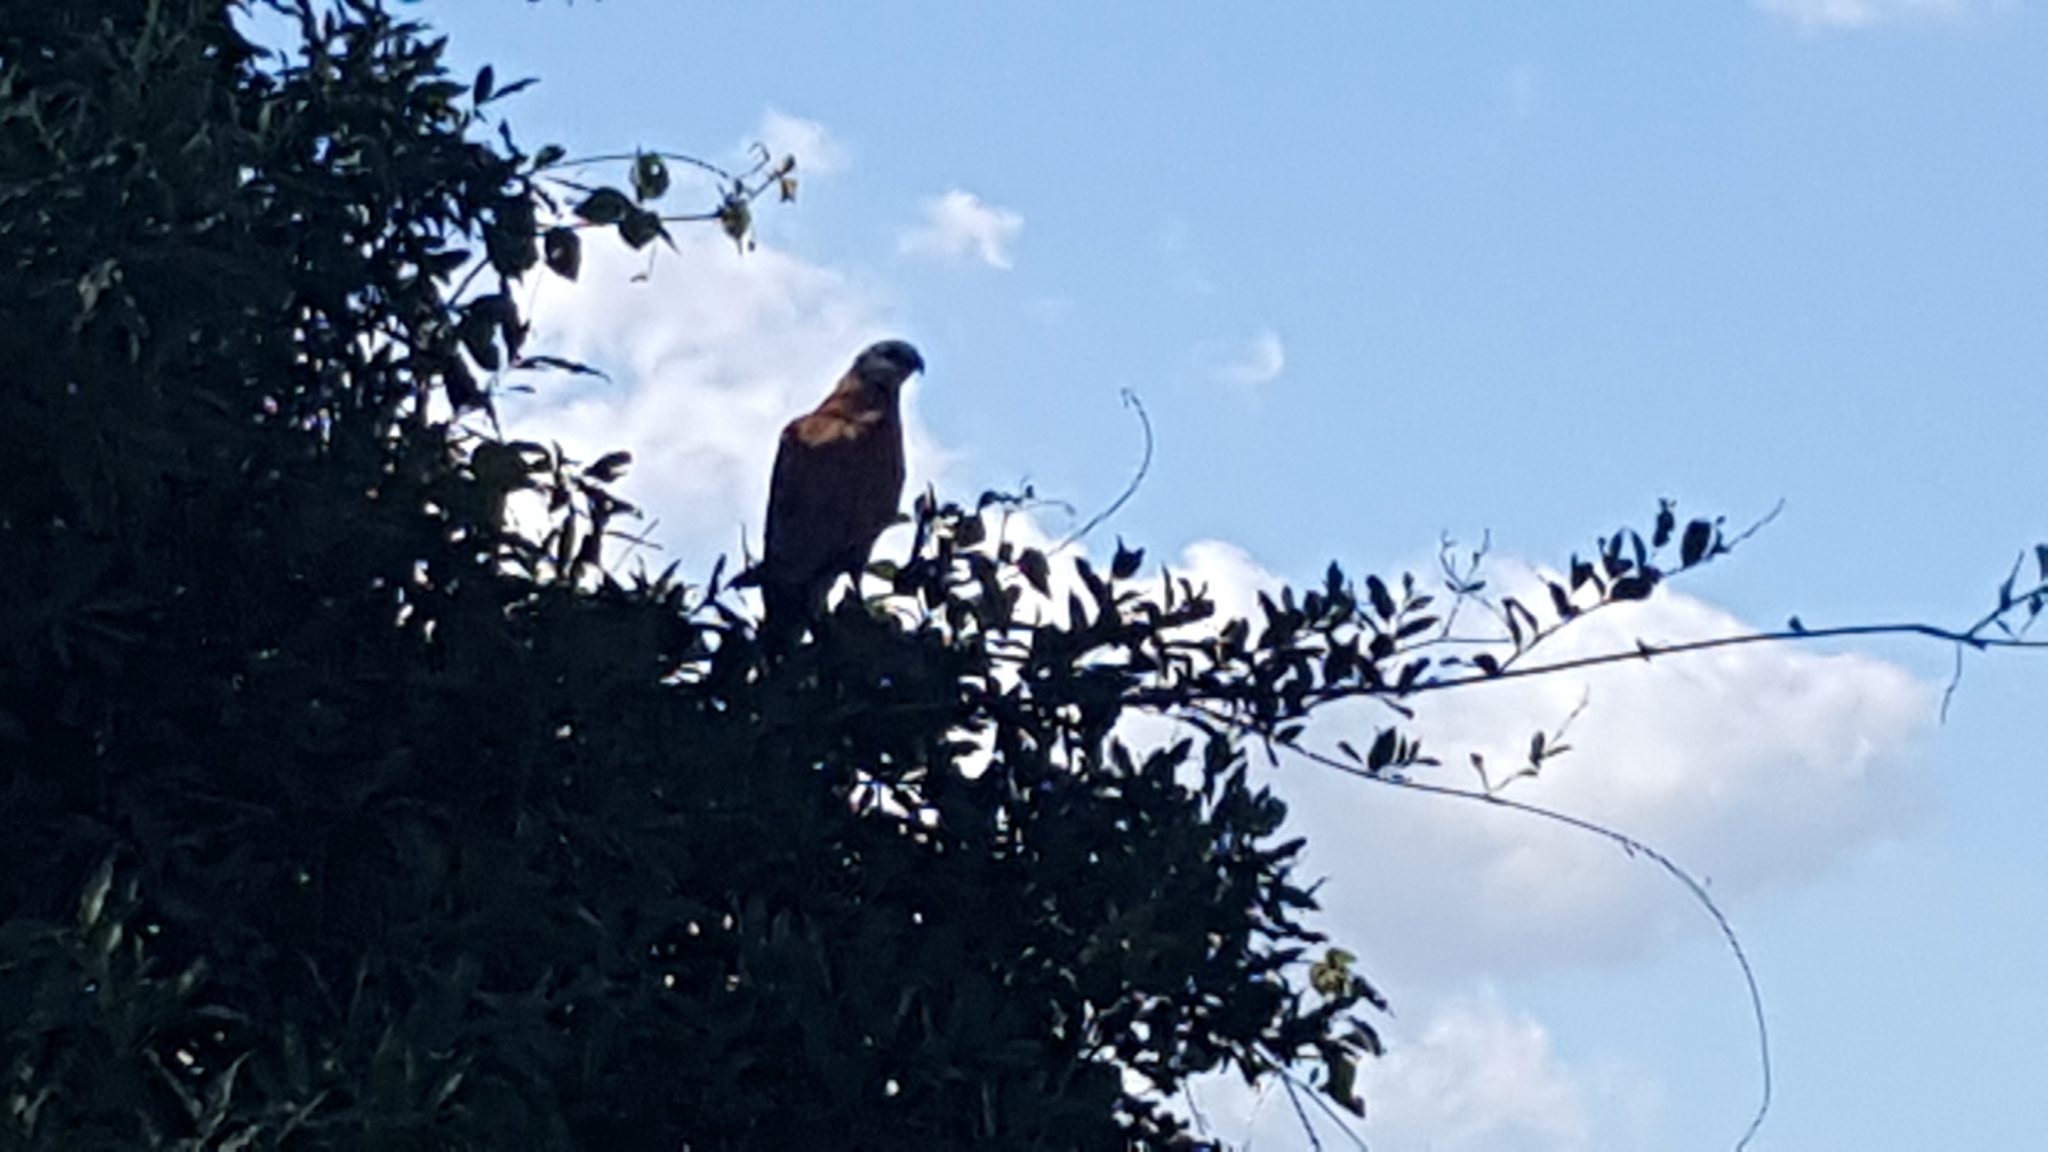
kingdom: Animalia
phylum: Chordata
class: Aves
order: Accipitriformes
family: Accipitridae
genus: Busarellus
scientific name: Busarellus nigricollis
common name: Black-collared hawk
